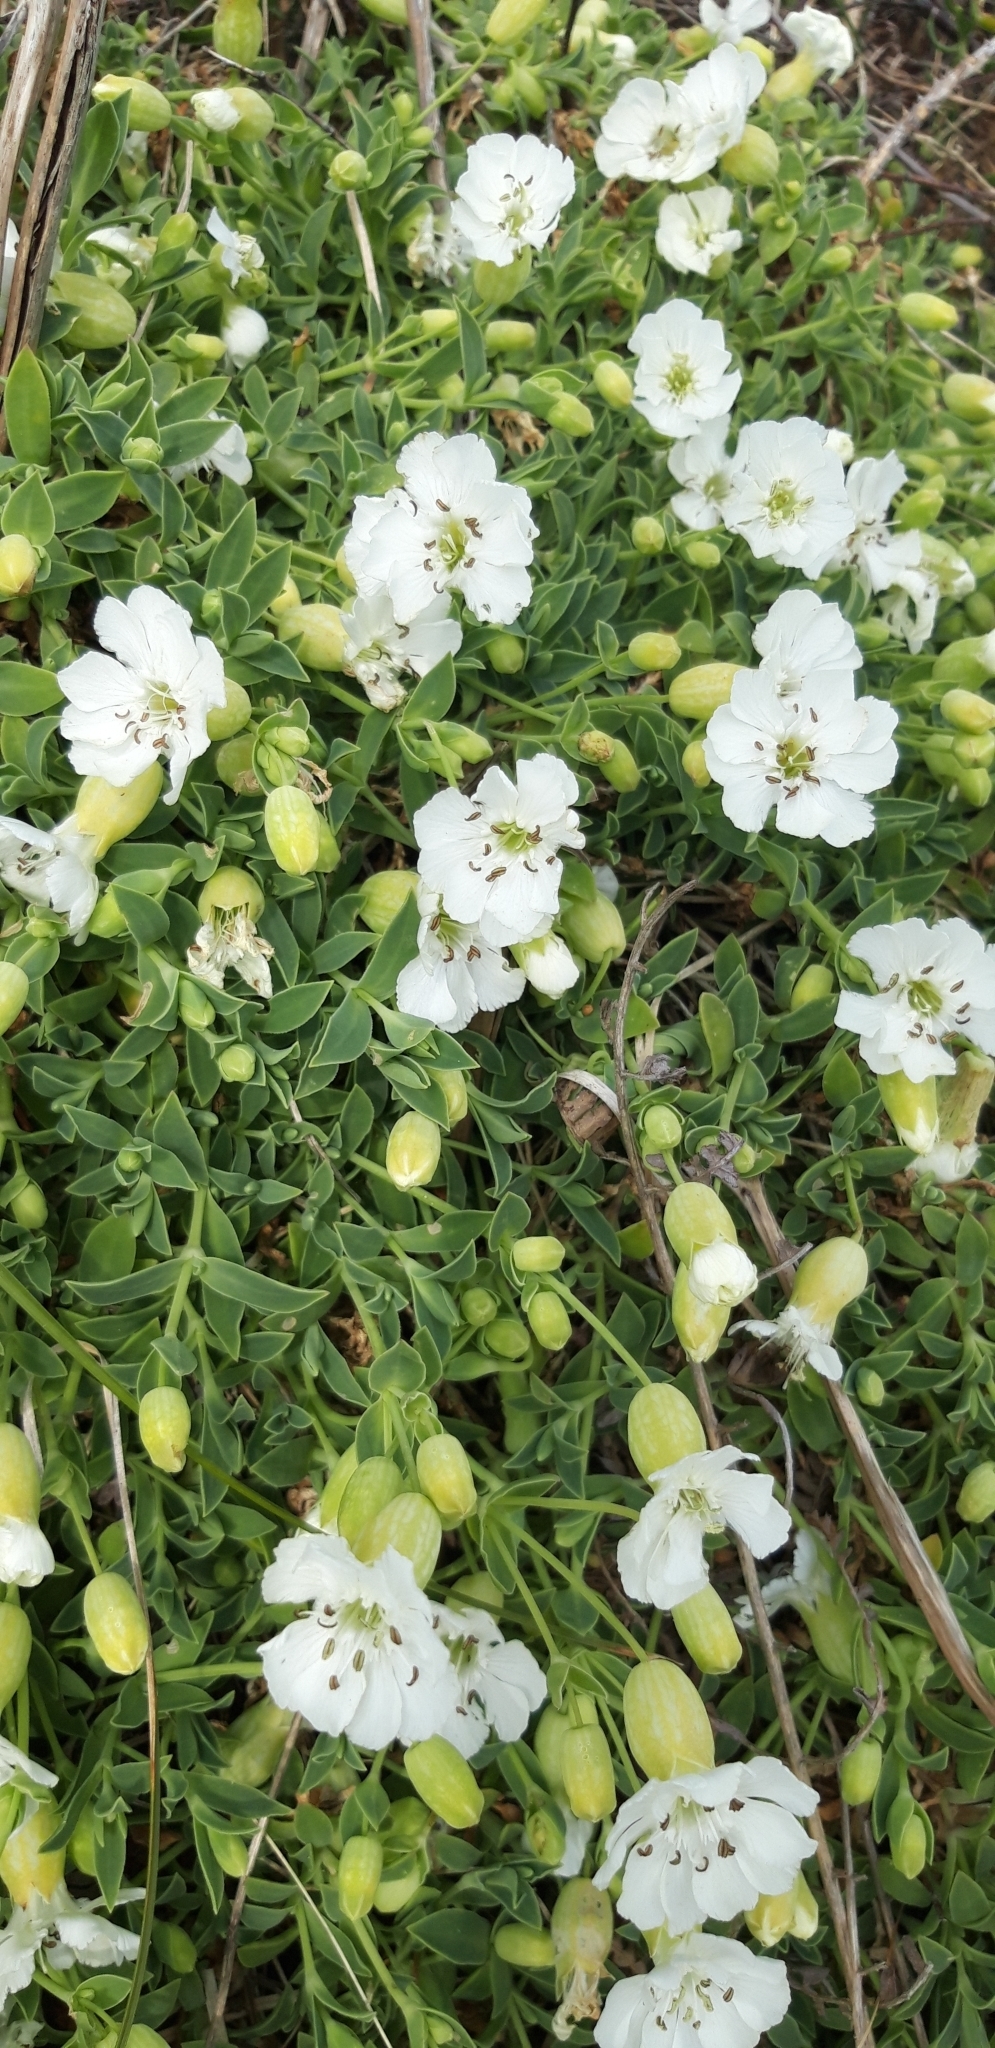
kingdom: Plantae
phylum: Tracheophyta
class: Magnoliopsida
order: Caryophyllales
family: Caryophyllaceae
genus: Silene
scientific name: Silene uniflora
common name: Sea campion
